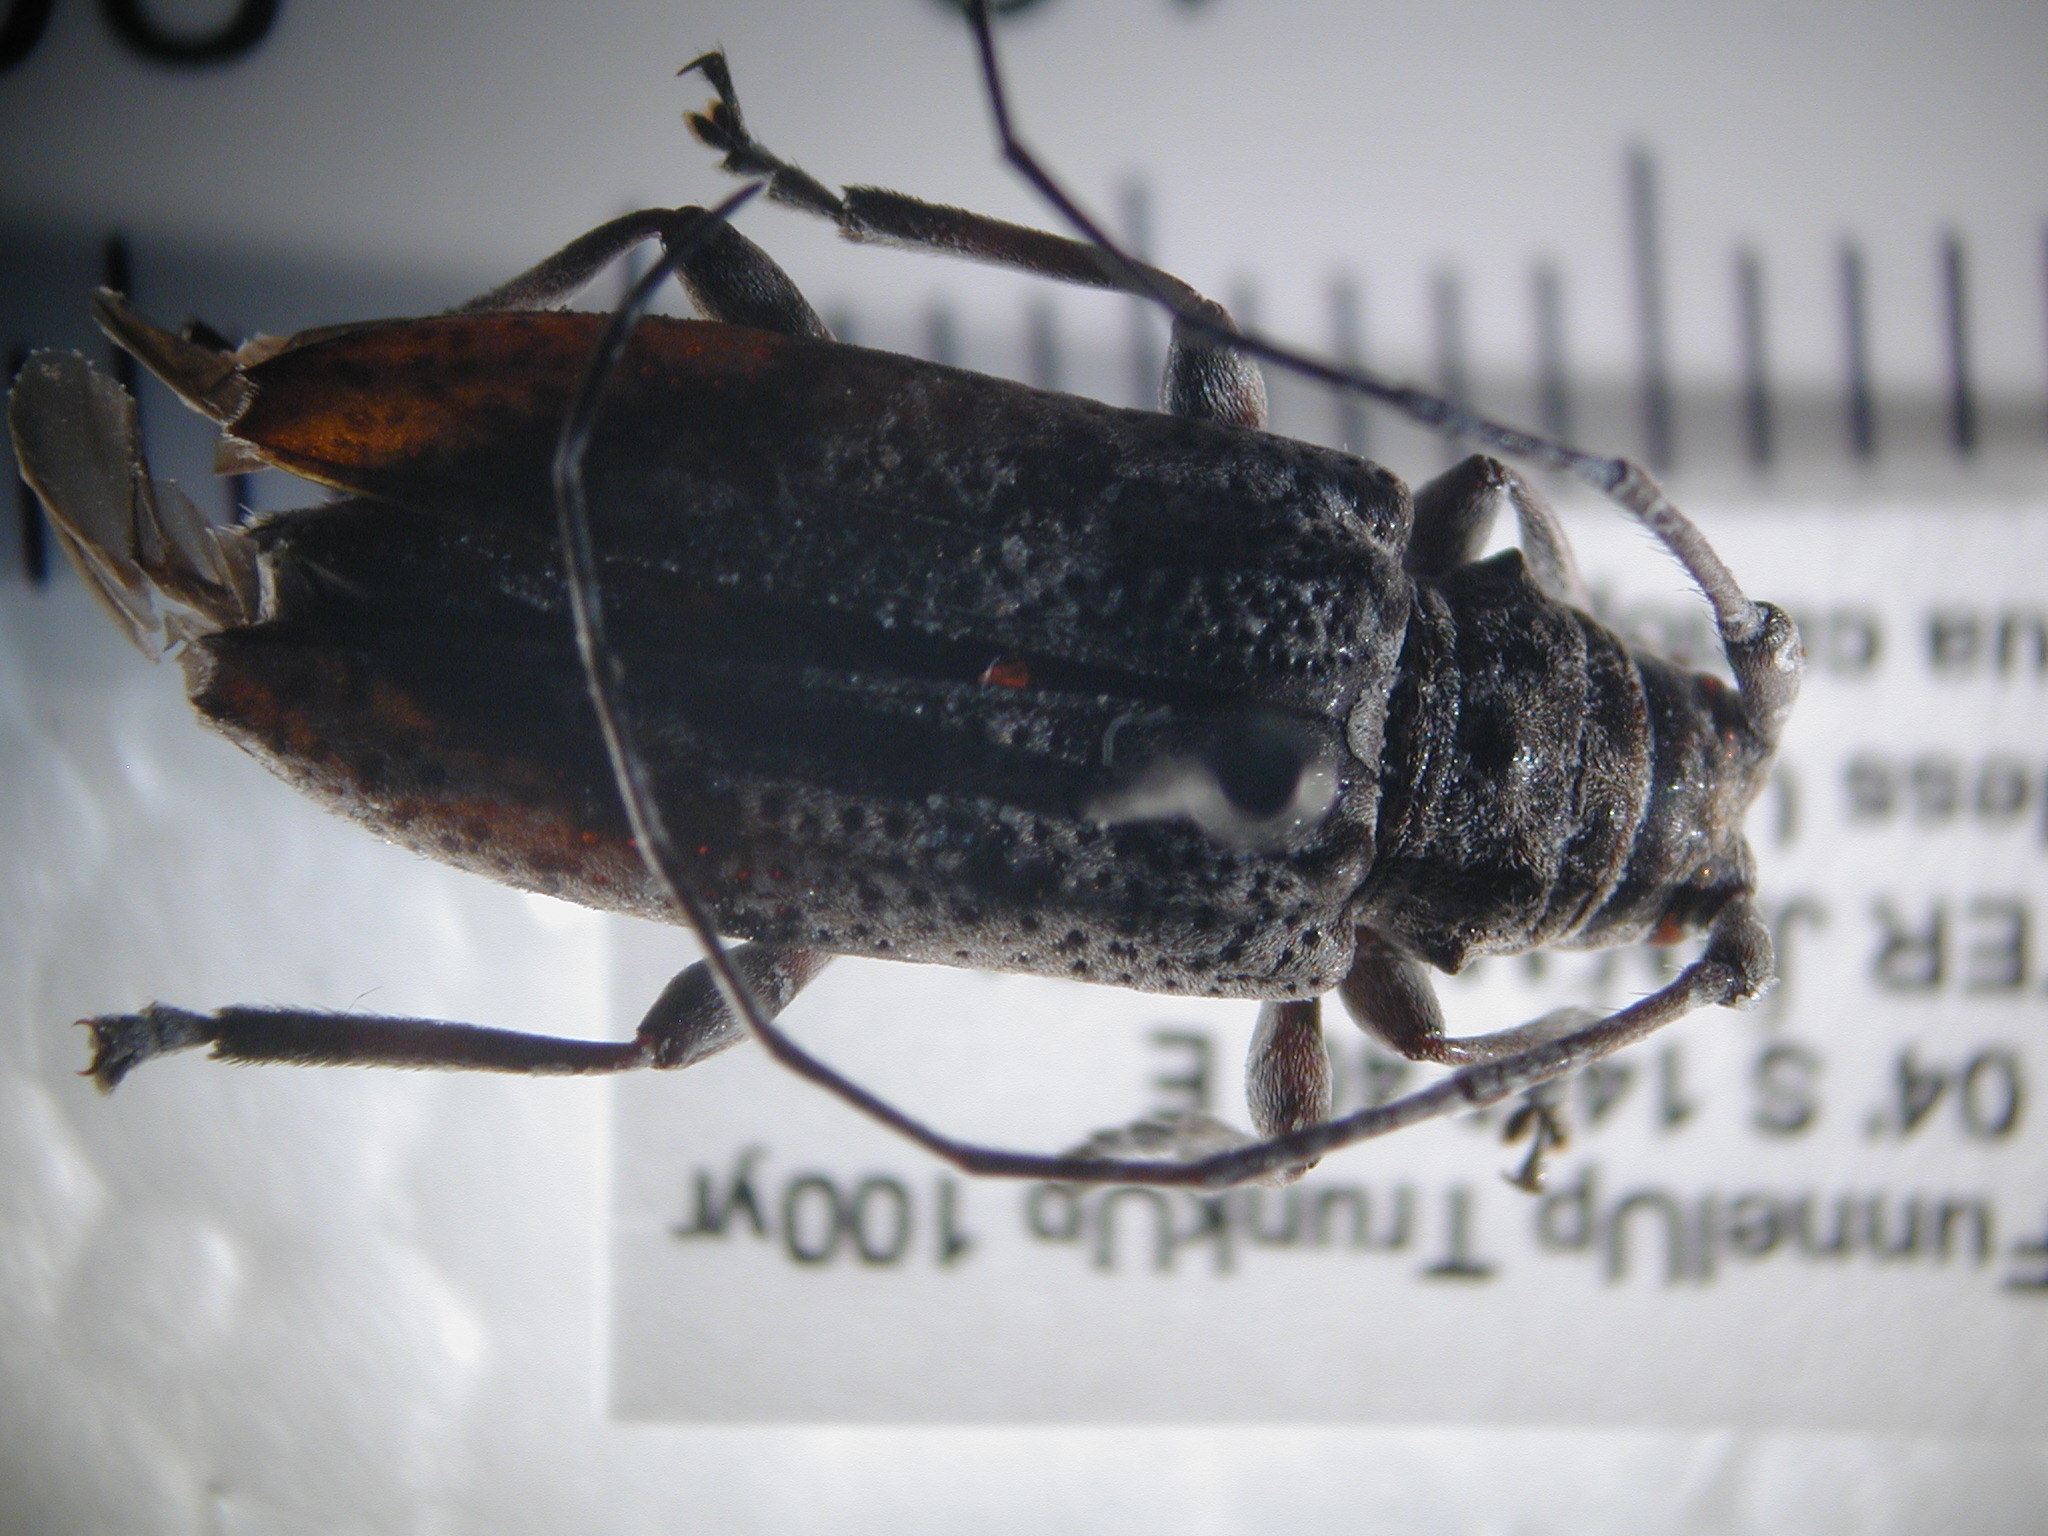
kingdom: Animalia
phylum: Arthropoda
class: Insecta
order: Coleoptera
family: Cerambycidae
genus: Disterna
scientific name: Disterna canosa
